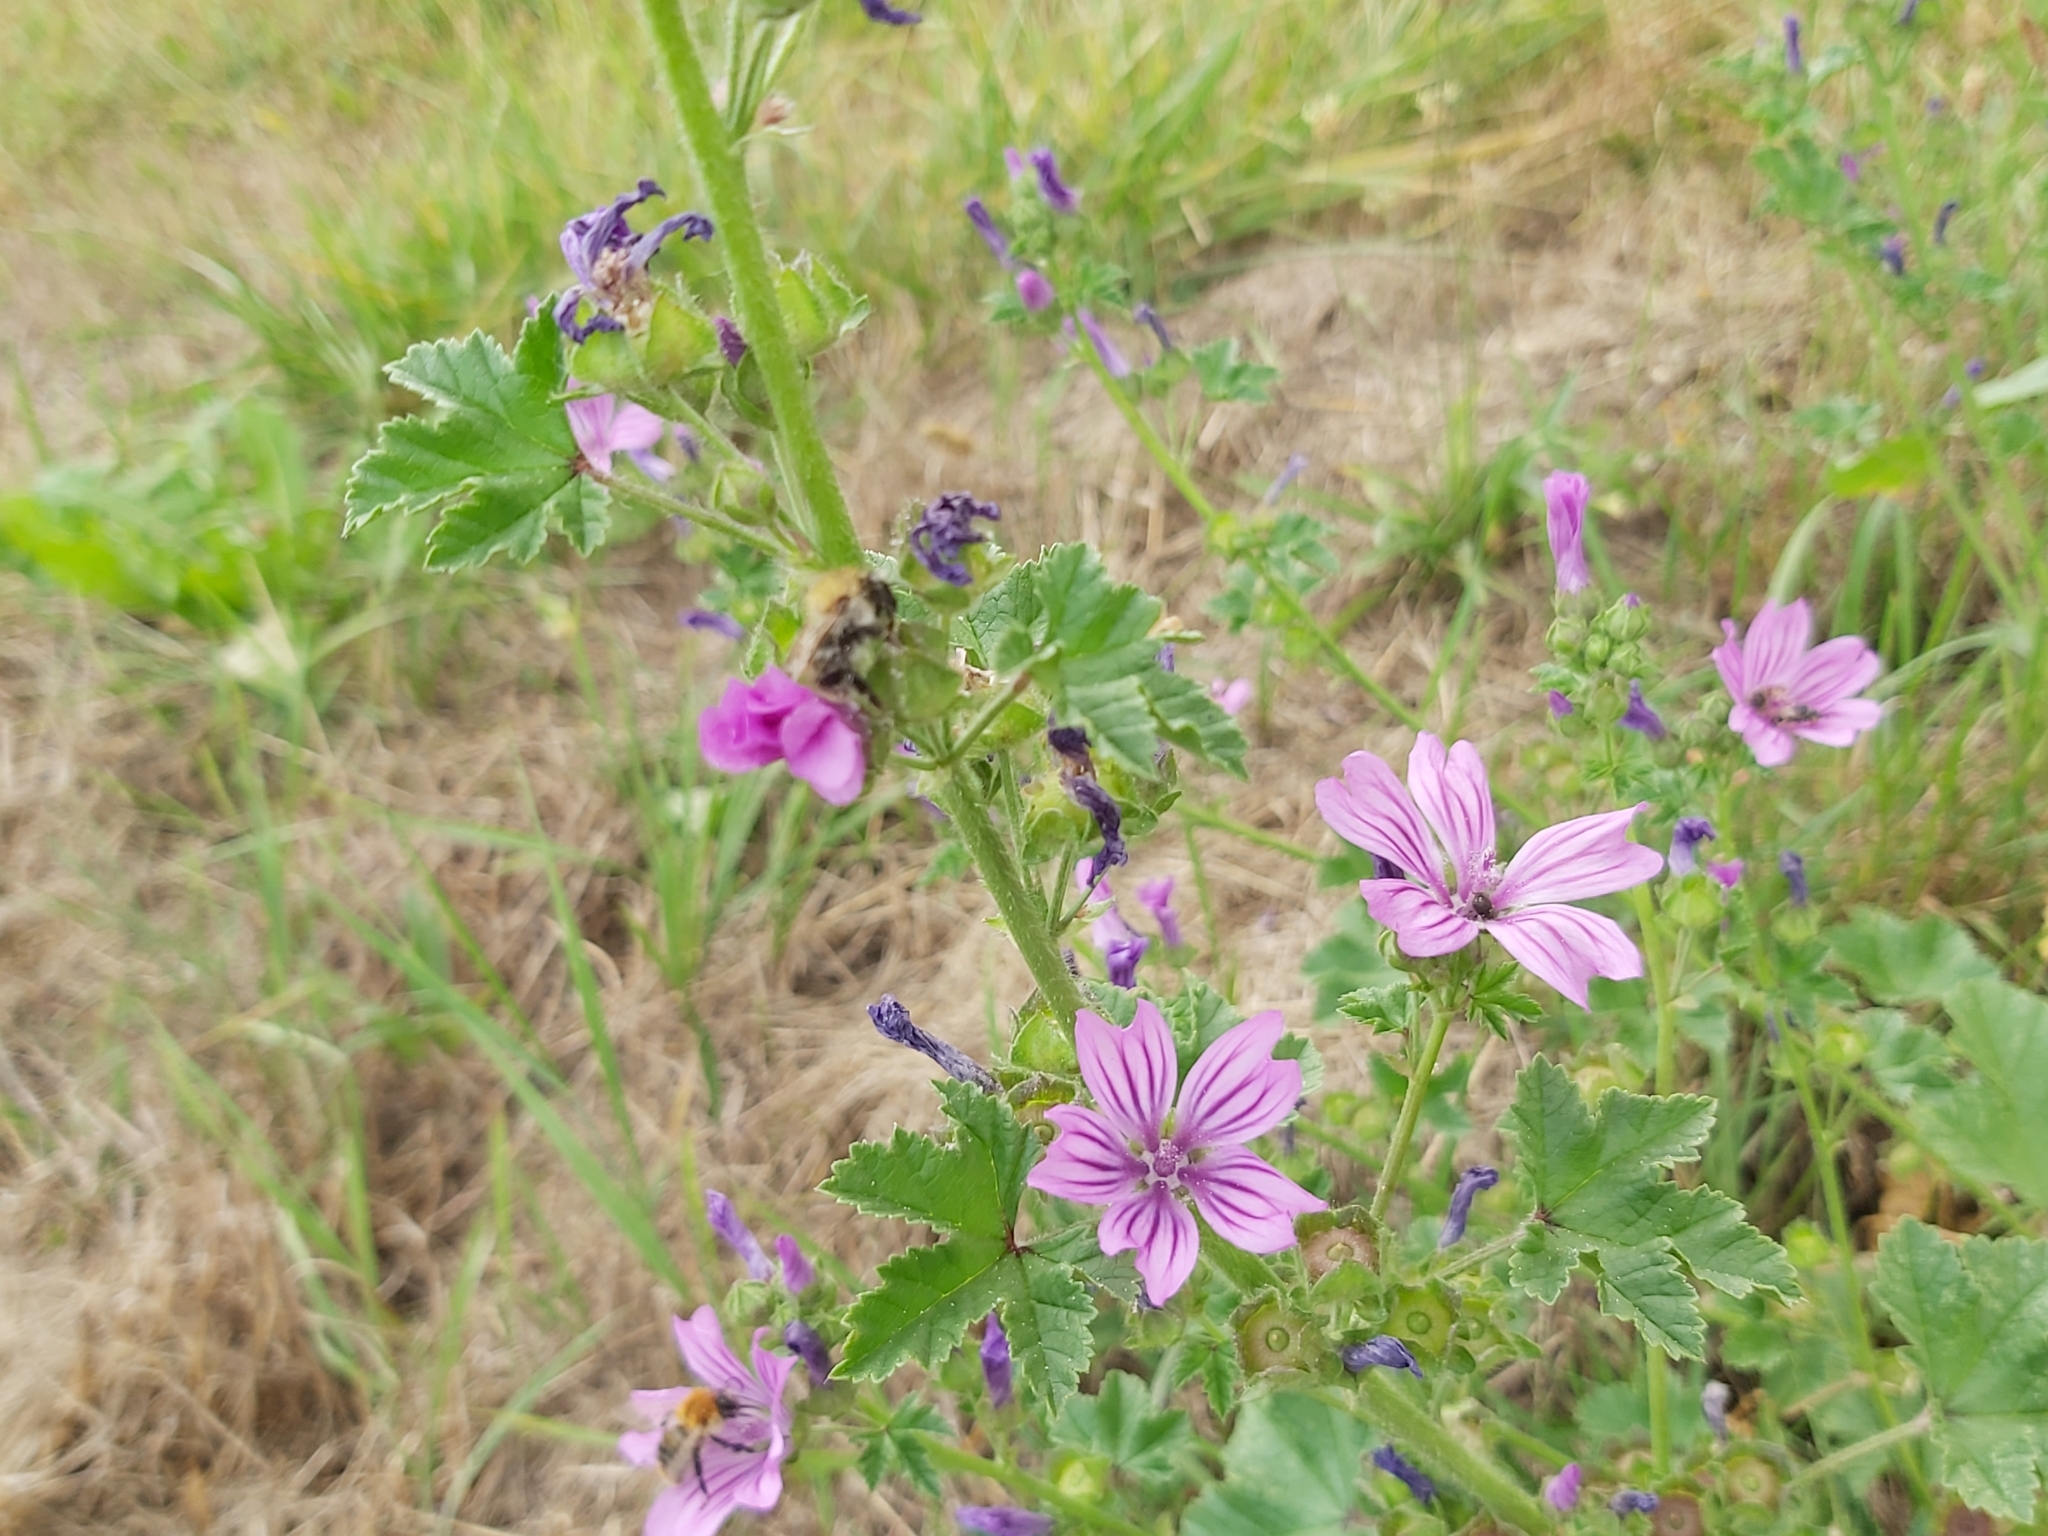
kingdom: Plantae
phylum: Tracheophyta
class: Magnoliopsida
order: Malvales
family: Malvaceae
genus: Malva
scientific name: Malva sylvestris
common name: Common mallow
